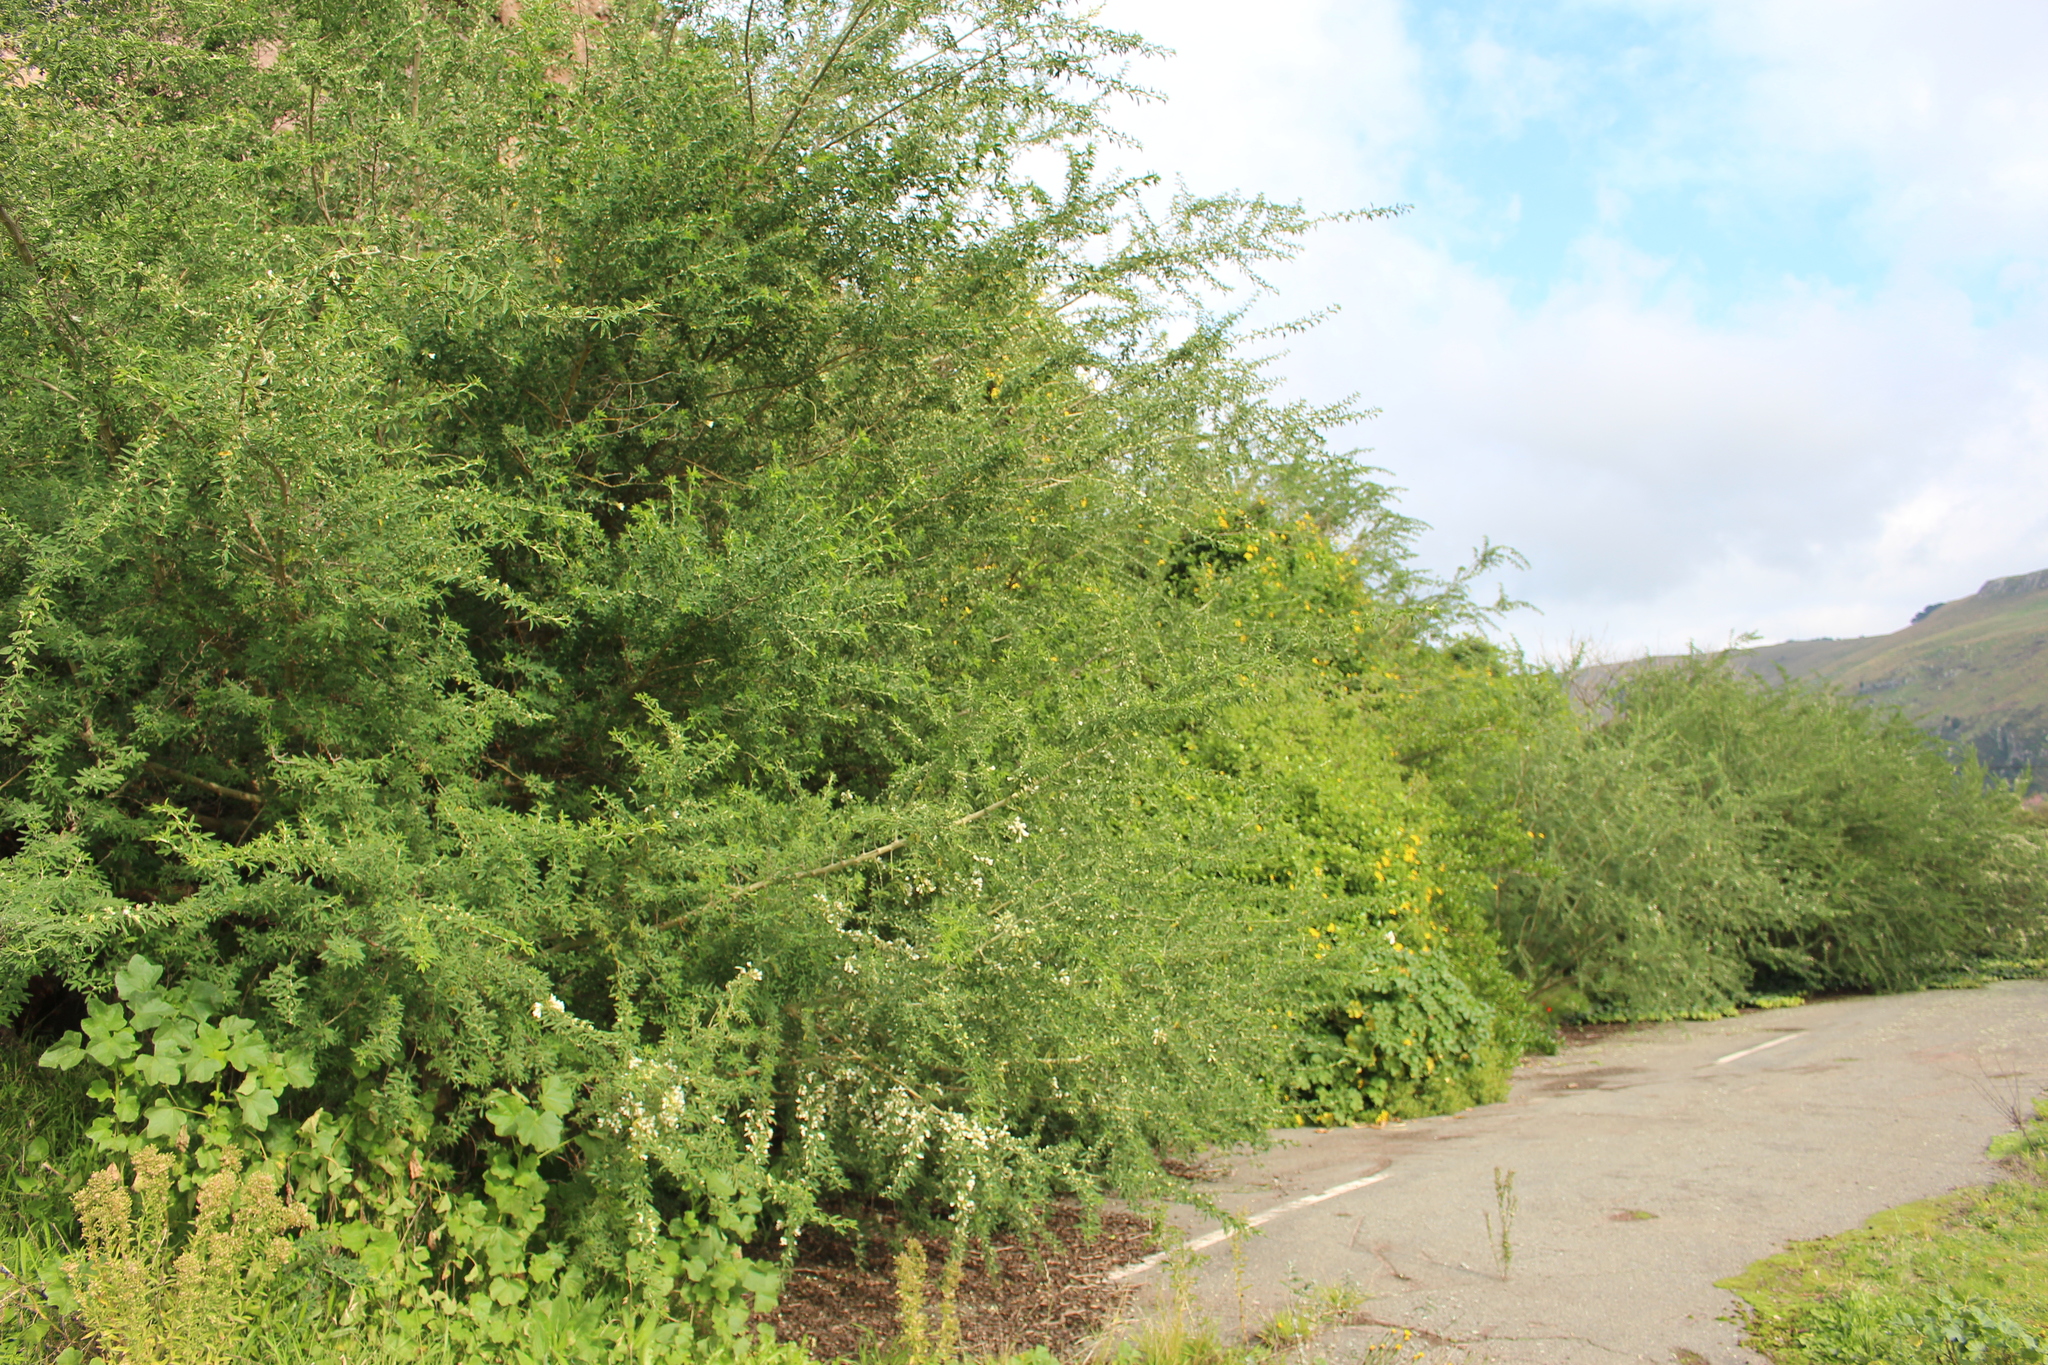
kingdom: Plantae
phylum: Tracheophyta
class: Magnoliopsida
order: Fabales
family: Fabaceae
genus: Chamaecytisus
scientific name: Chamaecytisus prolifer
